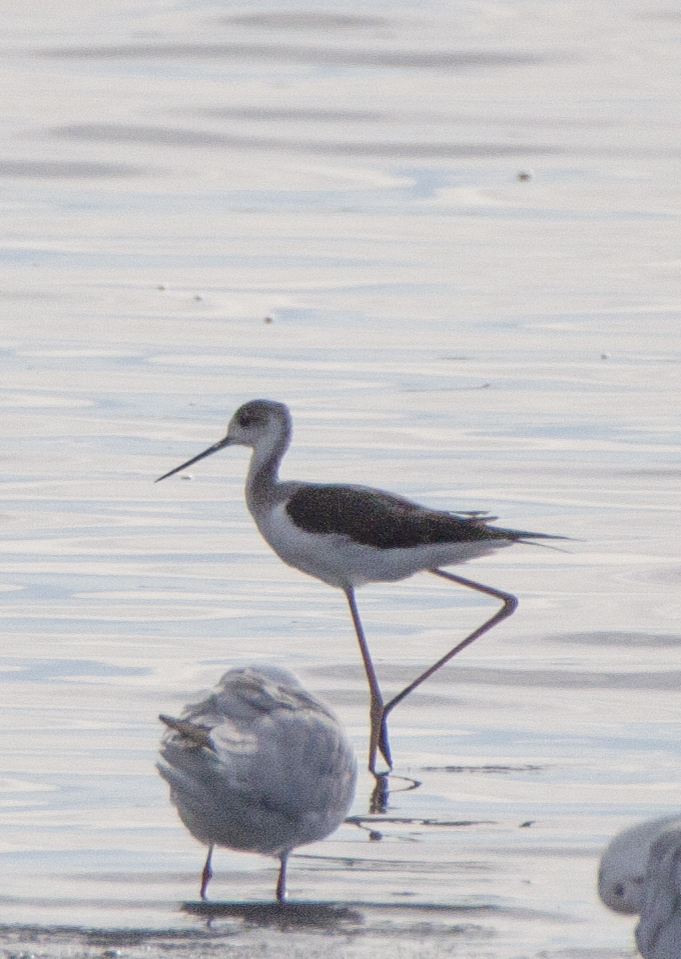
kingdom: Animalia
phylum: Chordata
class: Aves
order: Charadriiformes
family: Recurvirostridae
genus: Himantopus
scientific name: Himantopus himantopus
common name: Black-winged stilt
